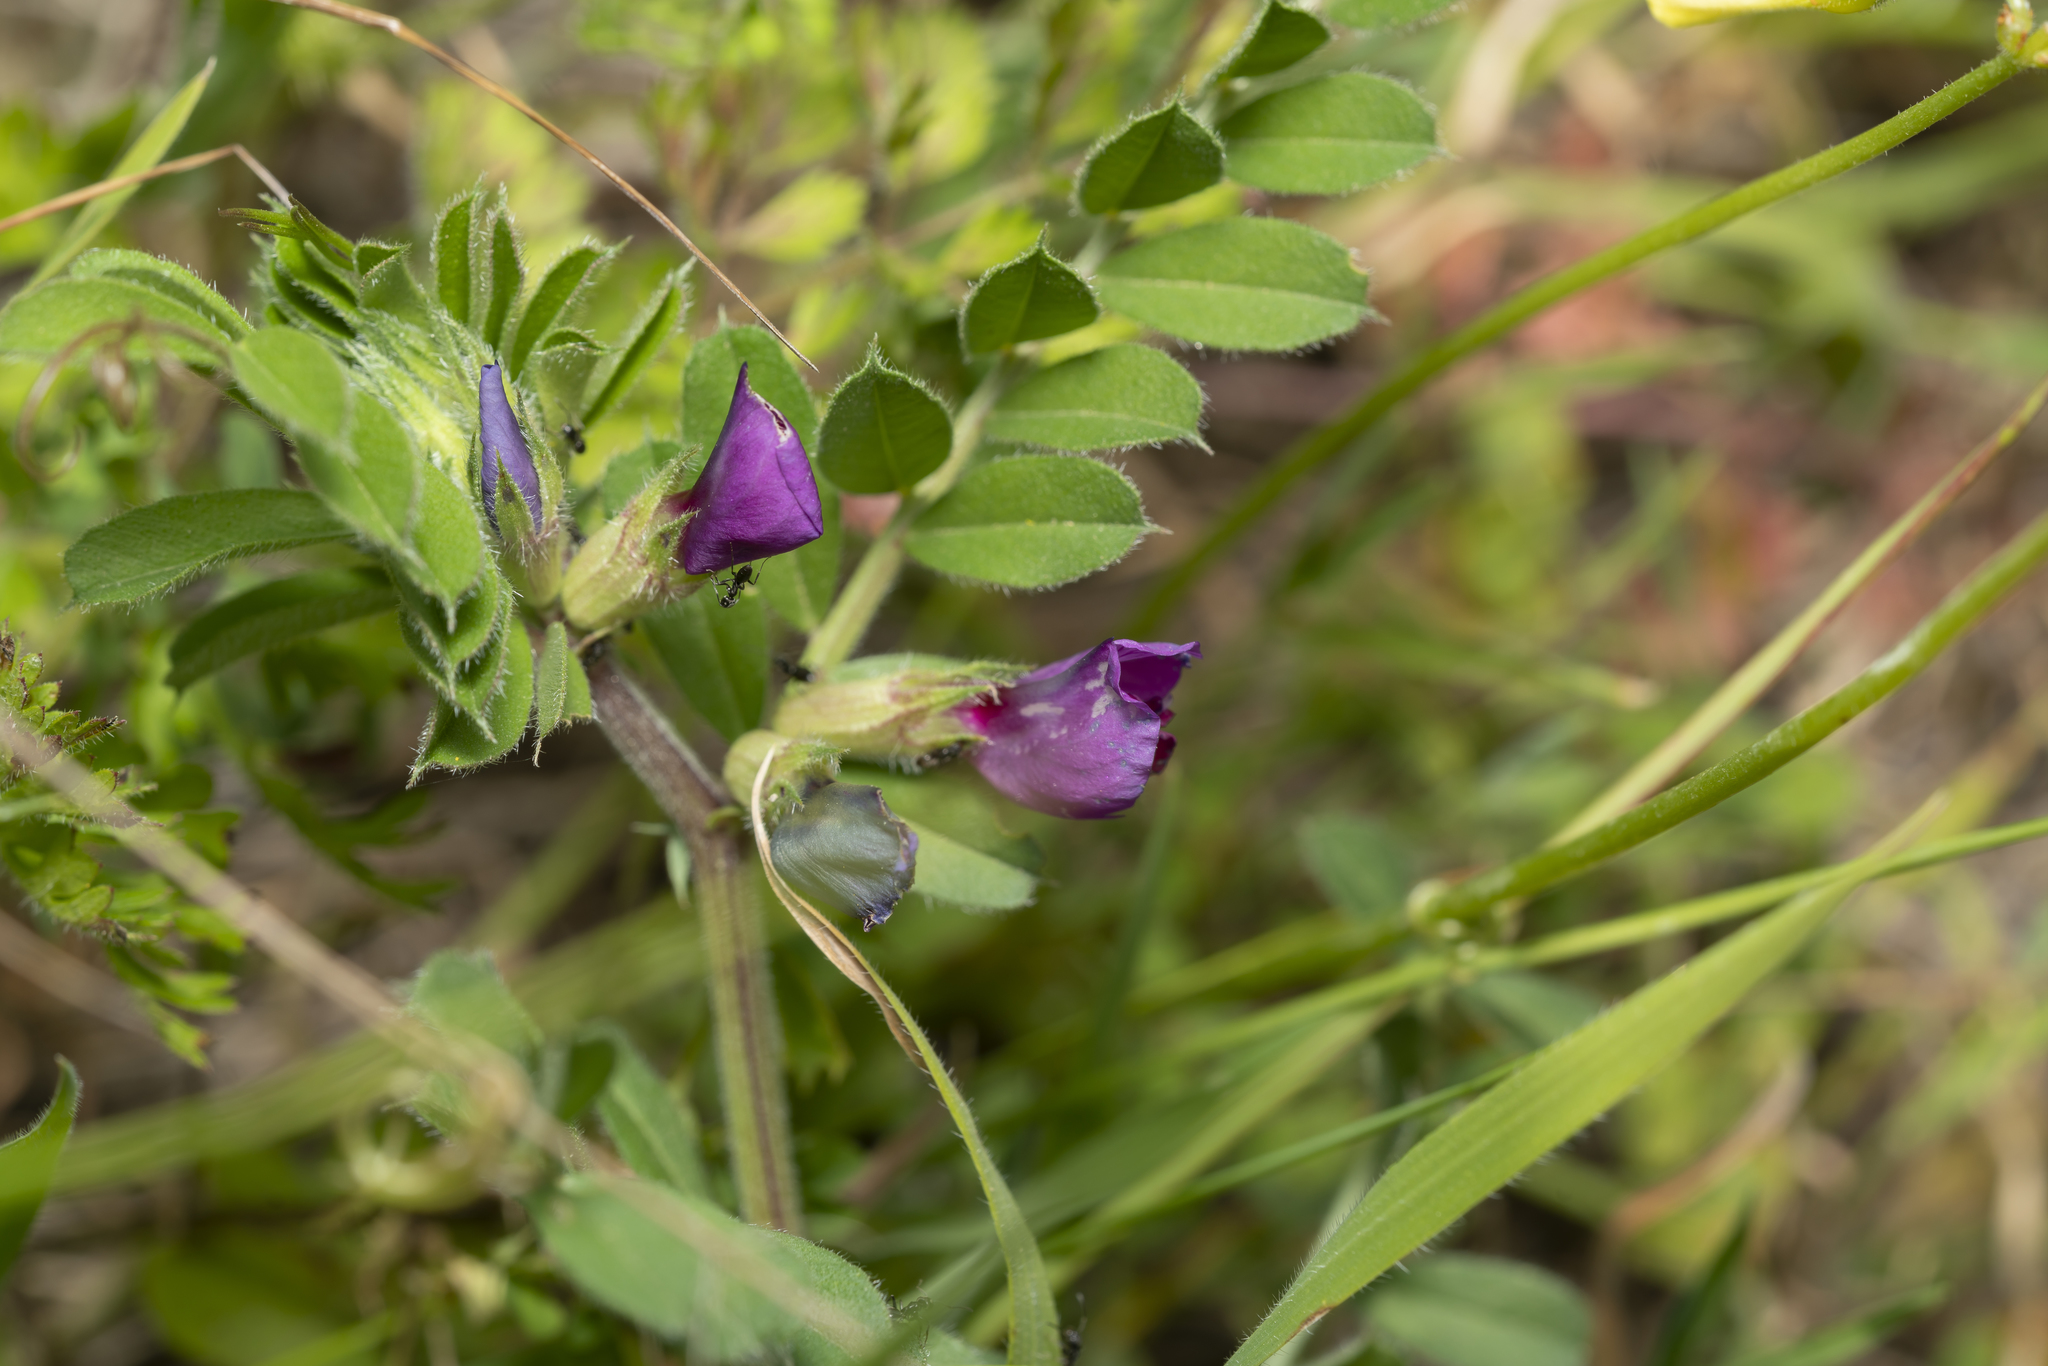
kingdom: Plantae
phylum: Tracheophyta
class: Magnoliopsida
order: Fabales
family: Fabaceae
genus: Vicia
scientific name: Vicia sativa
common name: Garden vetch
